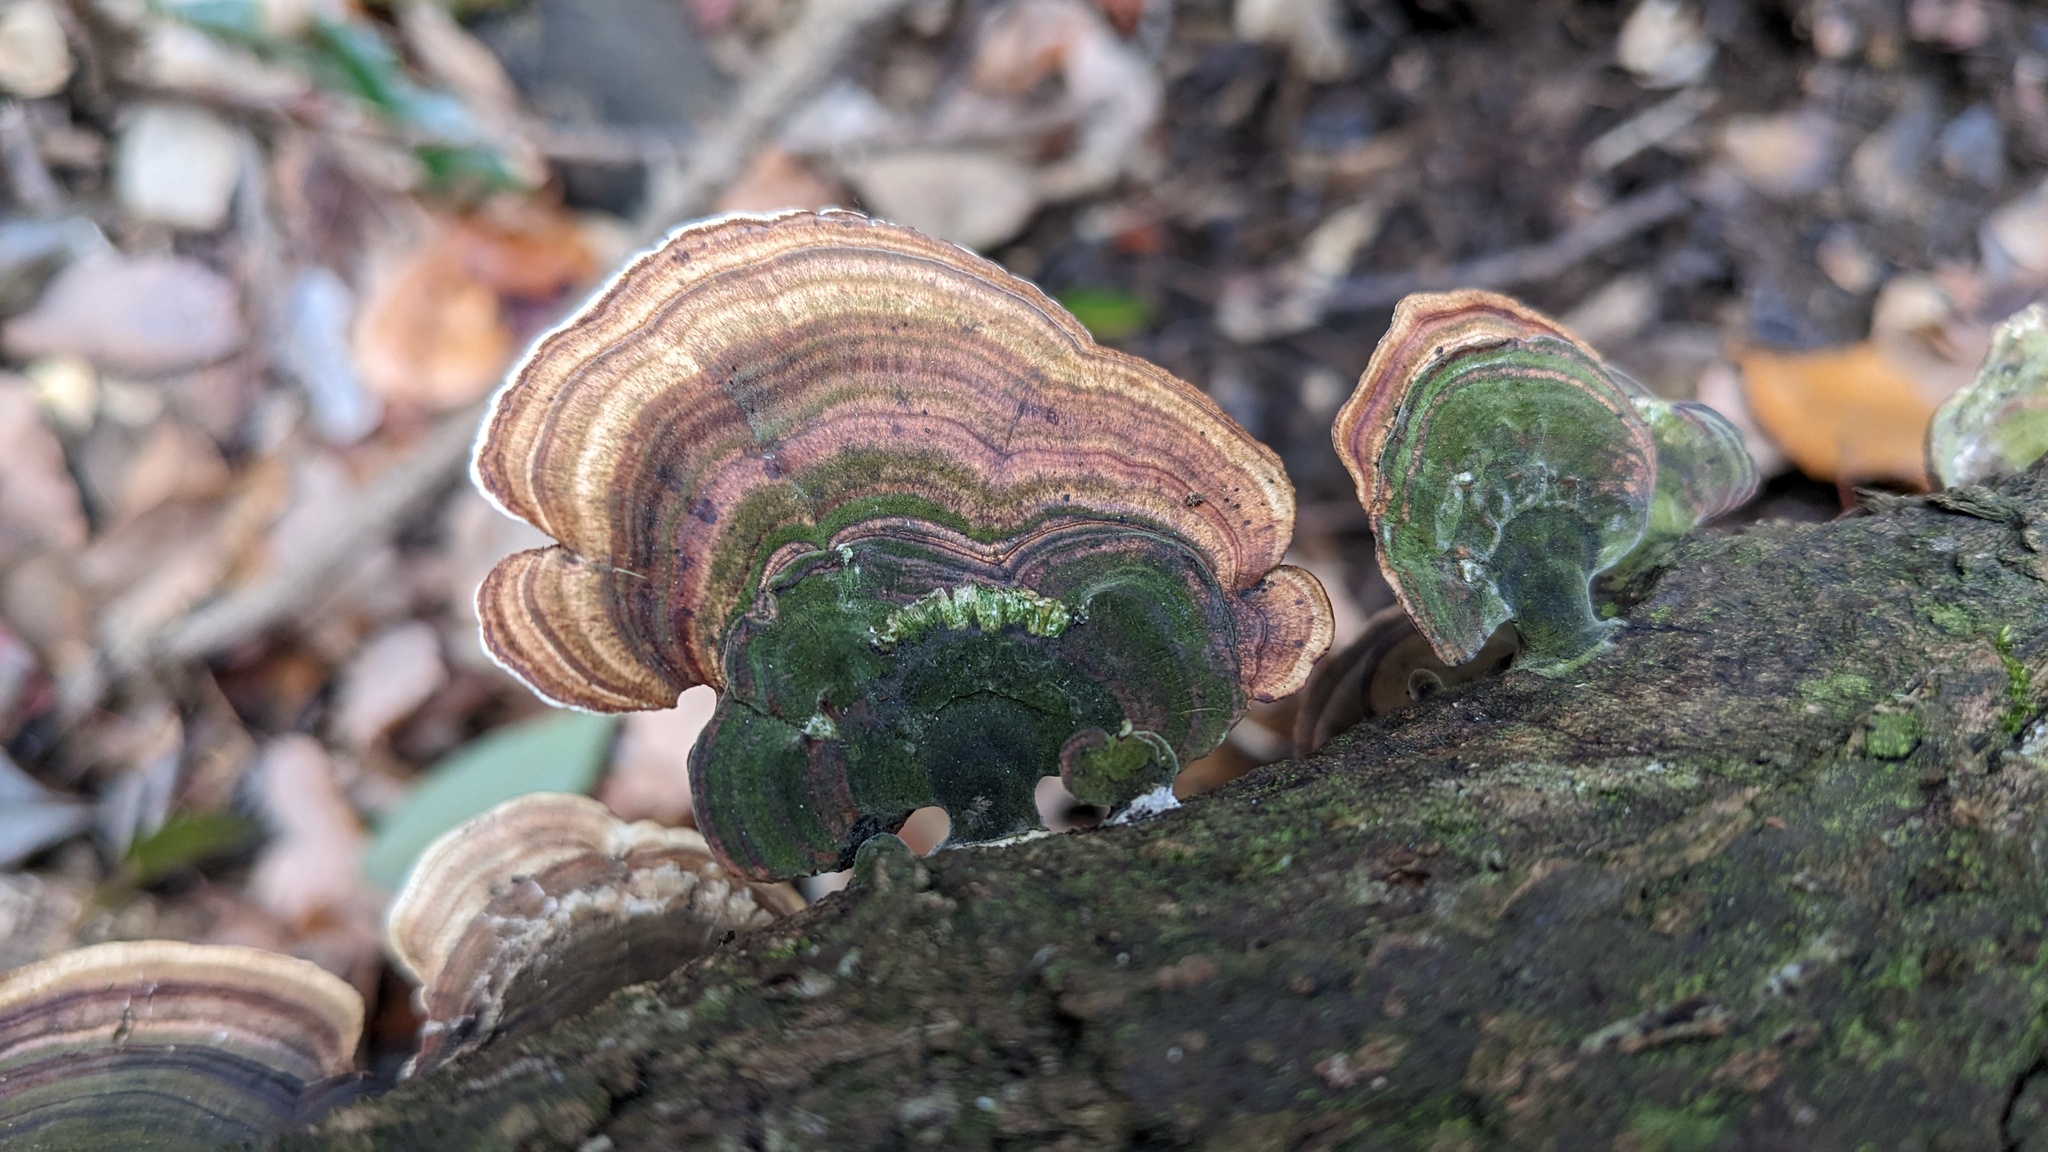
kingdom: Fungi
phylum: Basidiomycota
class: Agaricomycetes
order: Polyporales
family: Polyporaceae
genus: Microporus
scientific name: Microporus affinis
